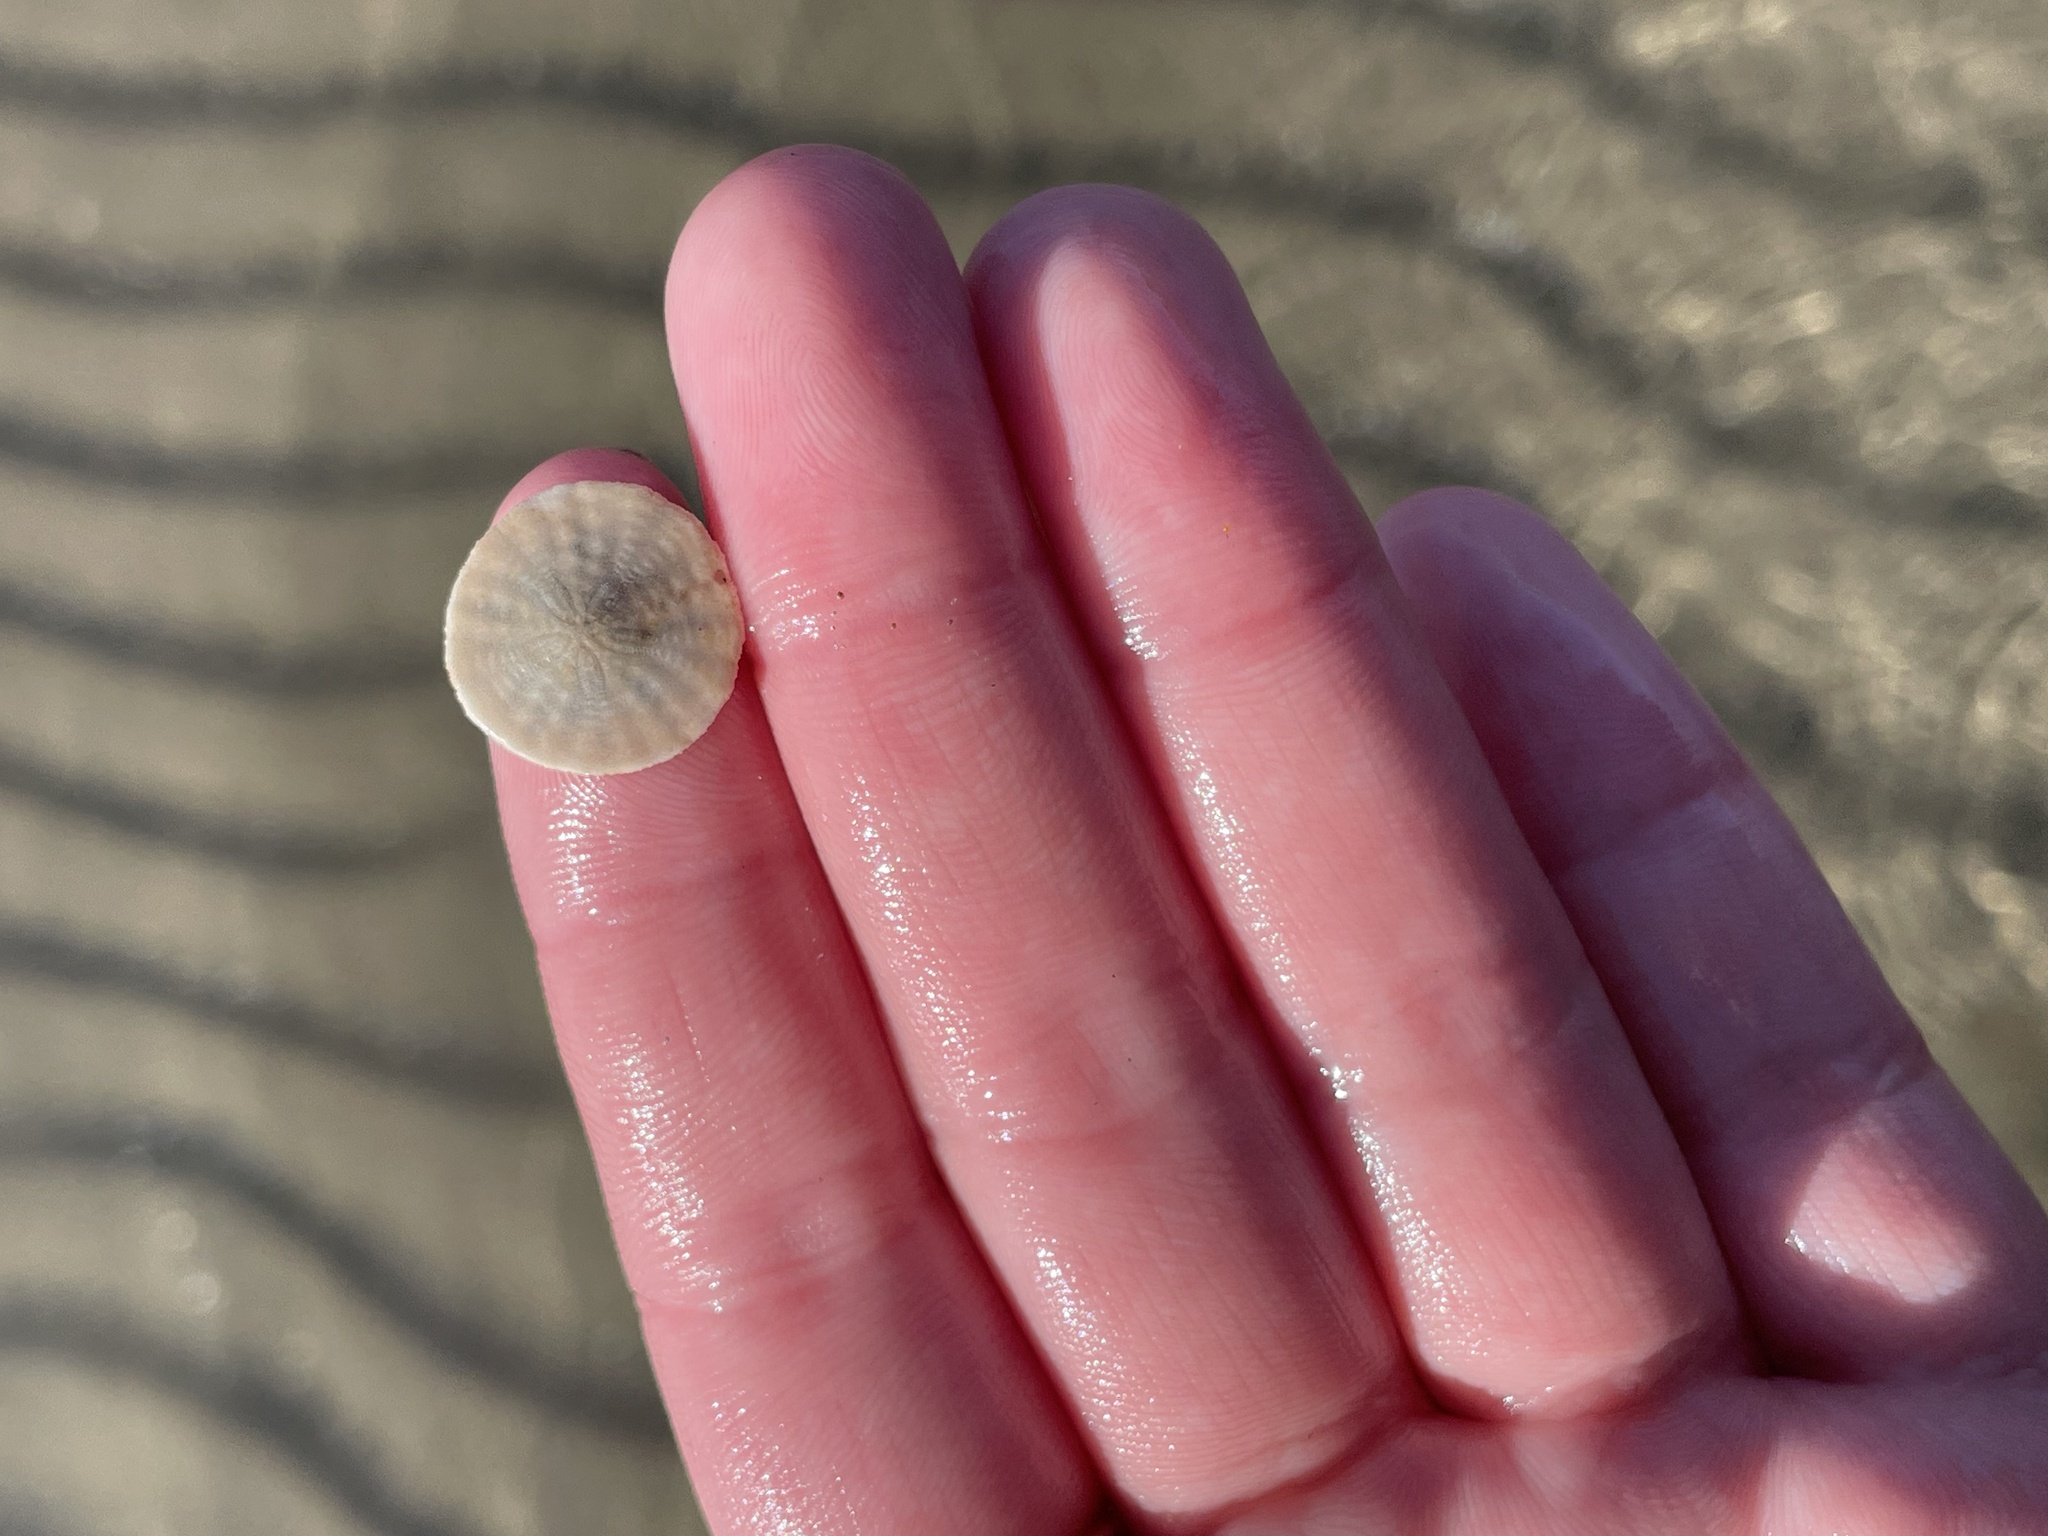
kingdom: Animalia
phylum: Echinodermata
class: Echinoidea
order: Echinolampadacea
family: Echinarachniidae
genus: Echinarachnius
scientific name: Echinarachnius parma
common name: Common sand dollar
